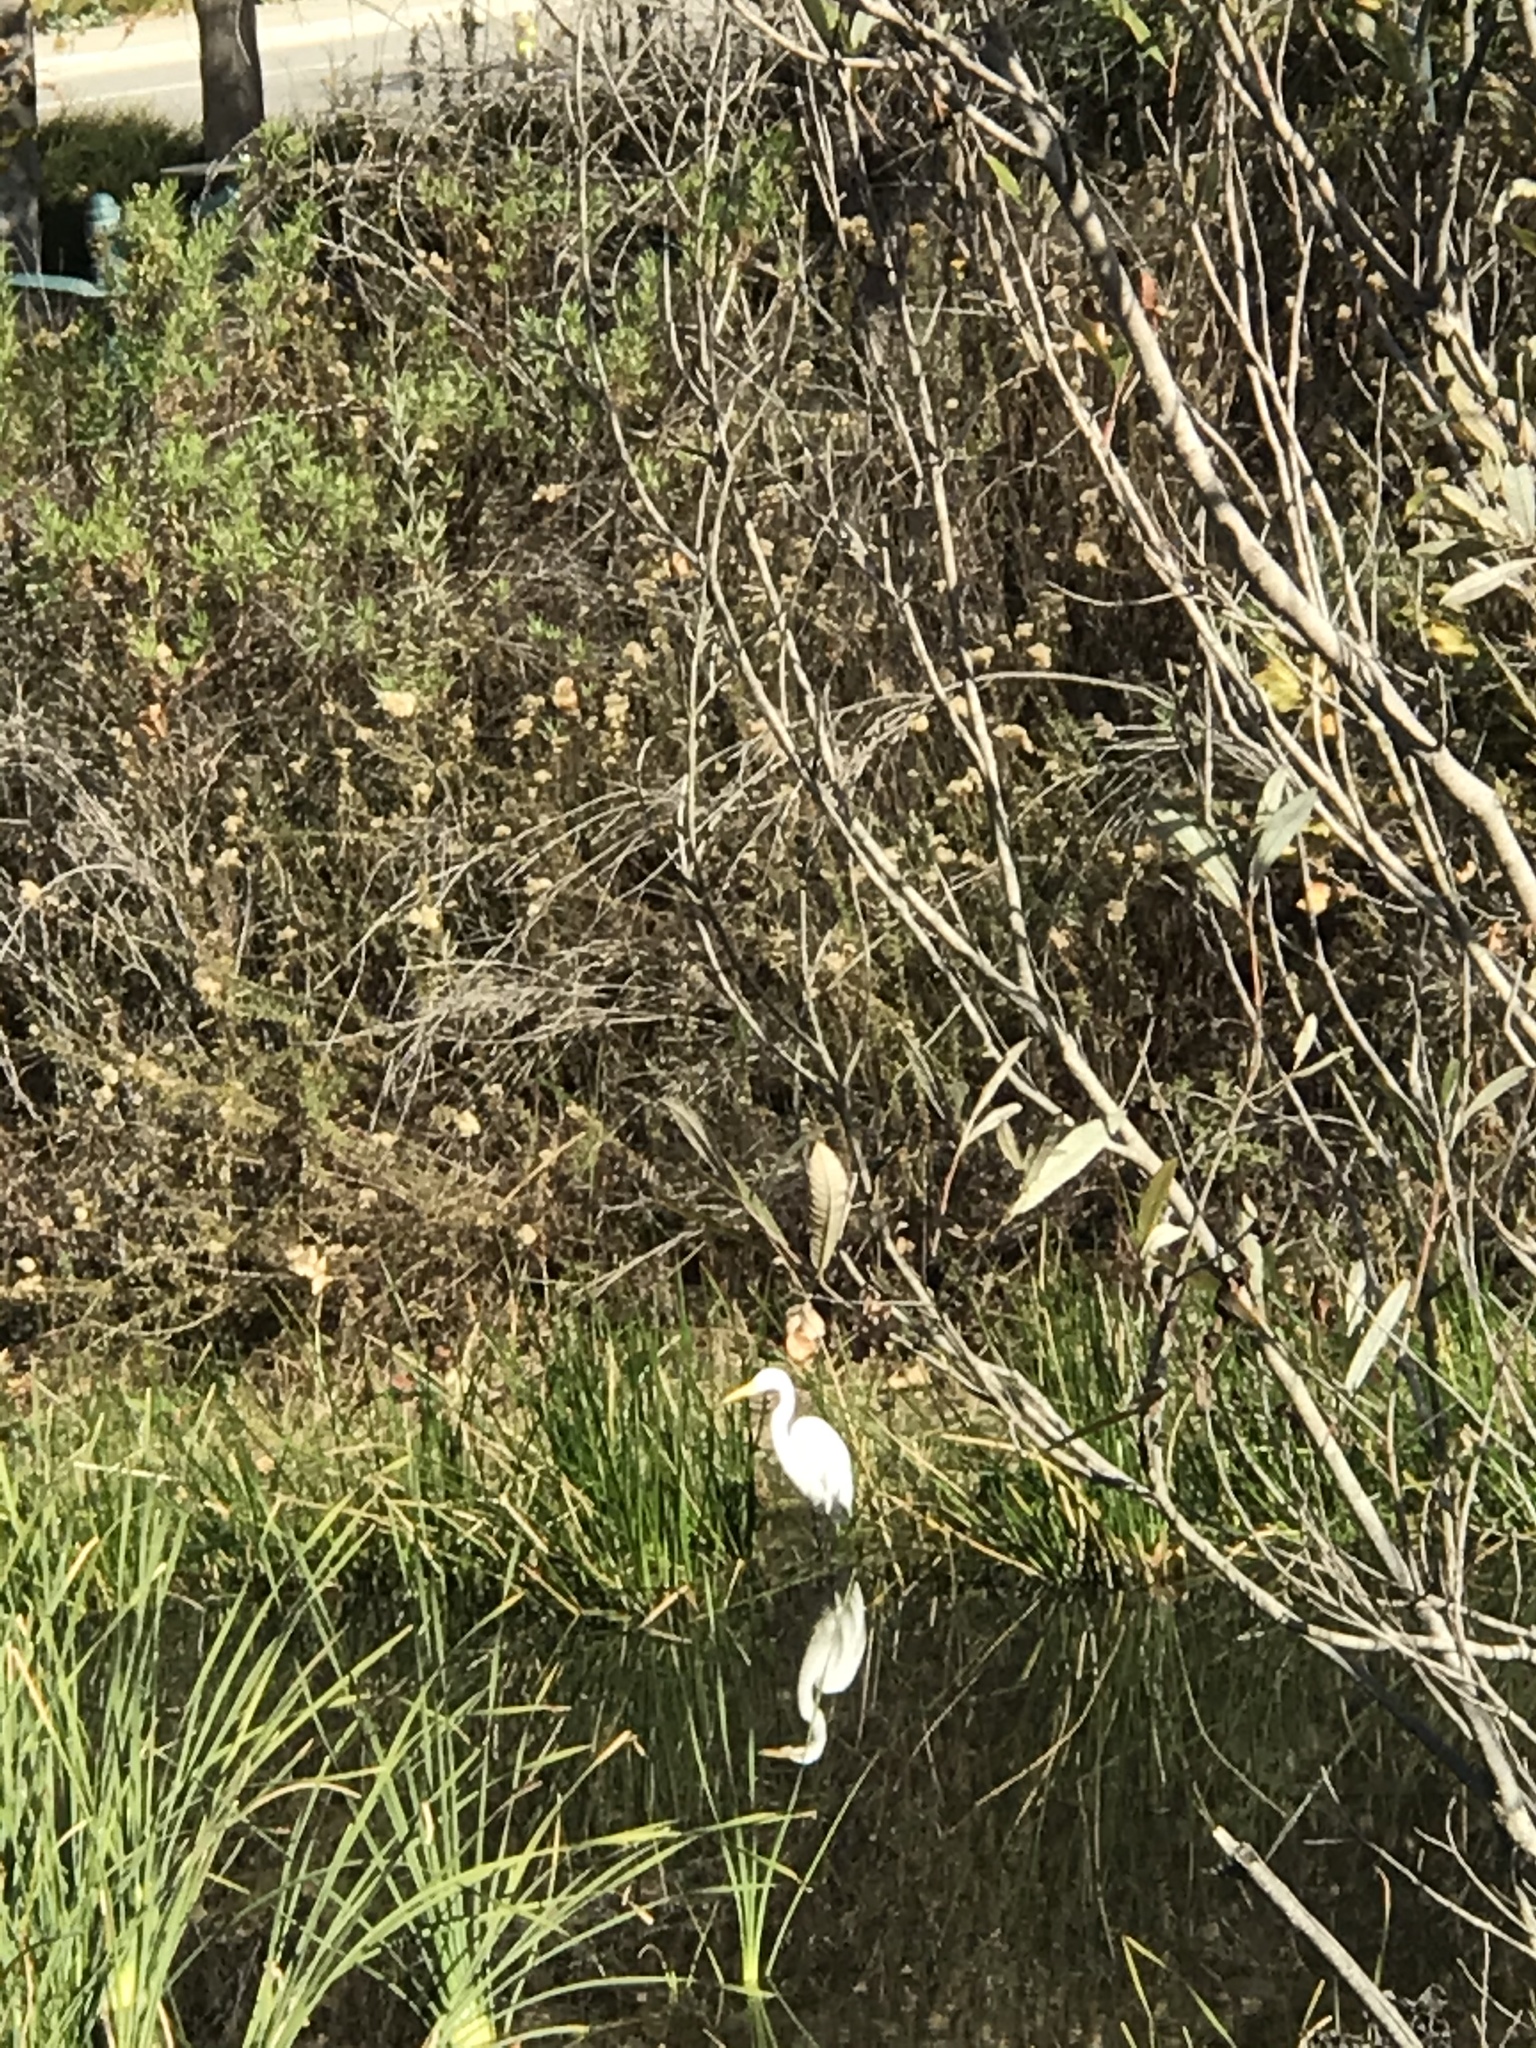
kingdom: Animalia
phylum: Chordata
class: Aves
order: Pelecaniformes
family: Ardeidae
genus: Ardea
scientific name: Ardea alba
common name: Great egret
